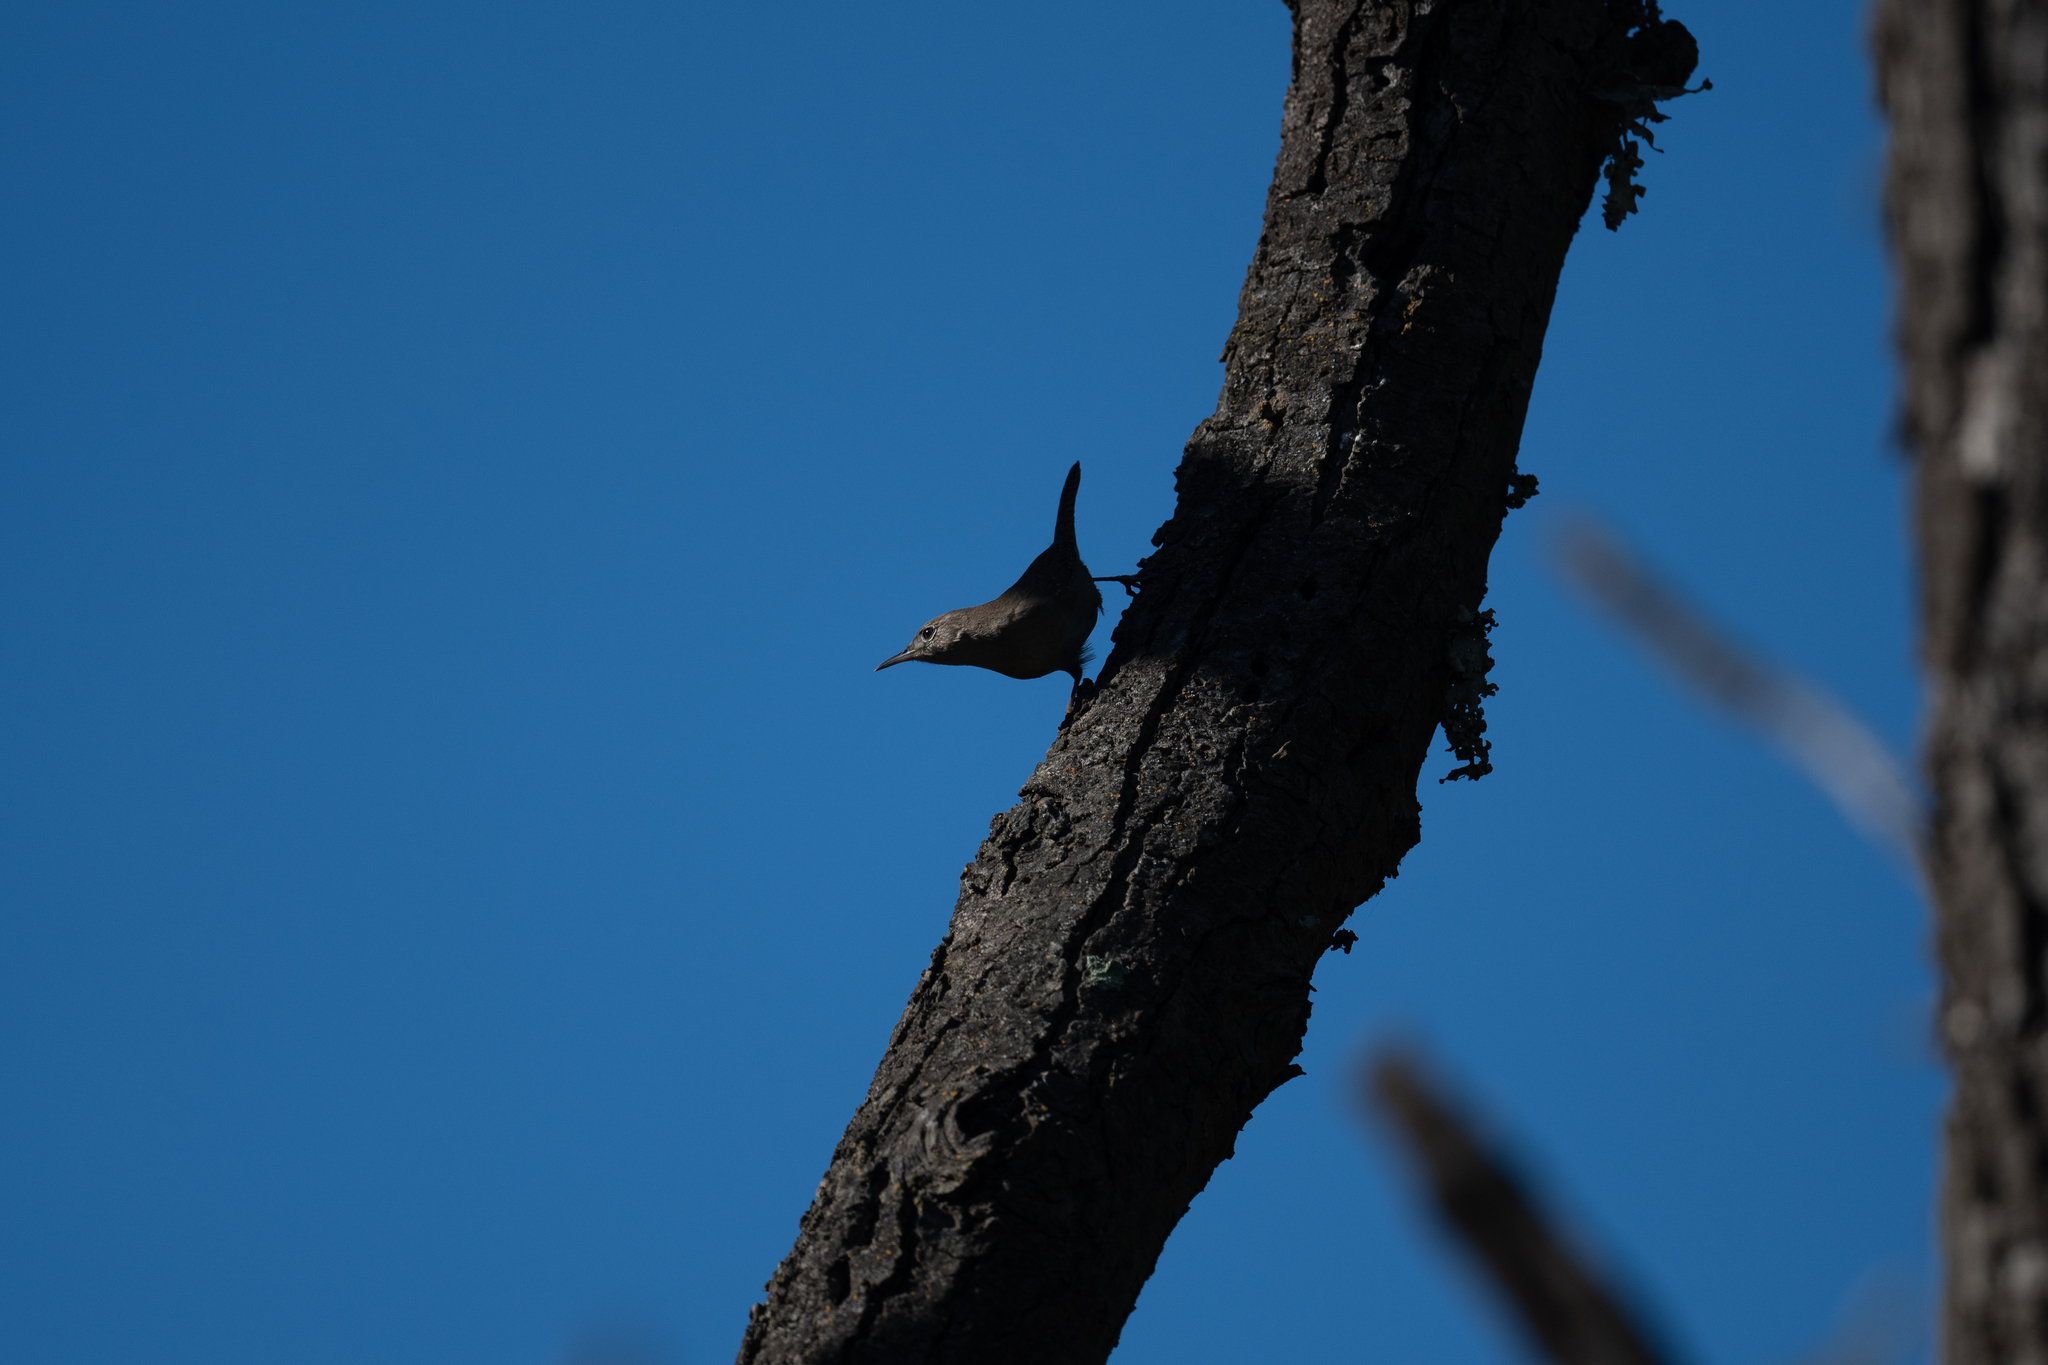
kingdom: Animalia
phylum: Chordata
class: Aves
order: Passeriformes
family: Troglodytidae
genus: Troglodytes
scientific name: Troglodytes aedon
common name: House wren
